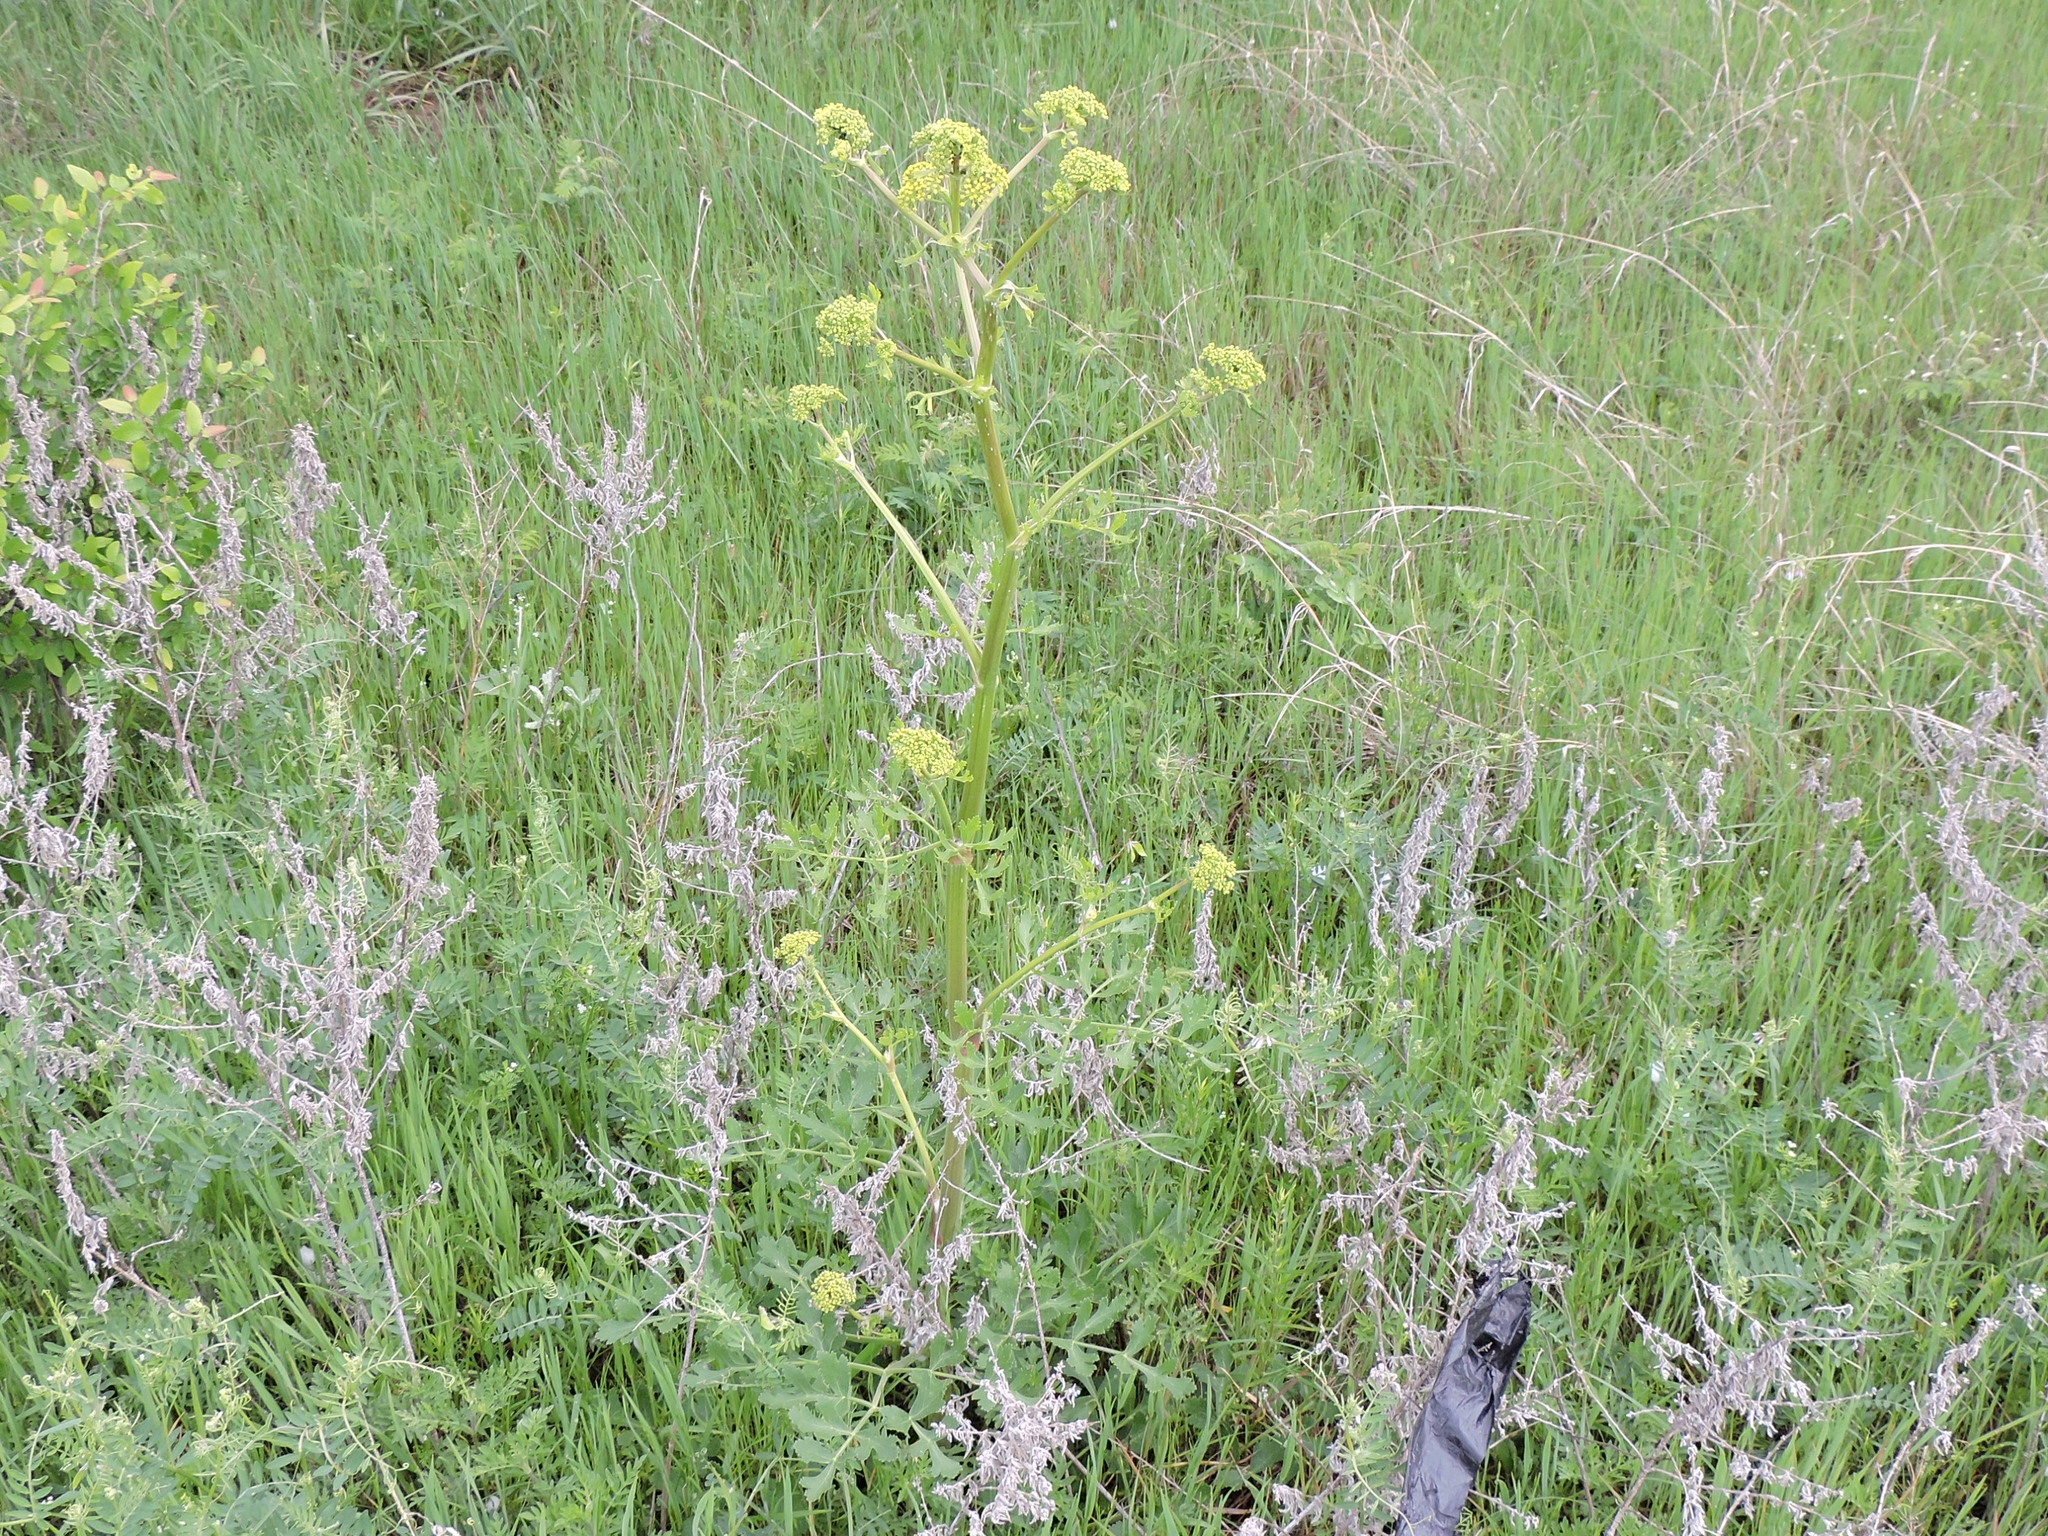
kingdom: Plantae
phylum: Tracheophyta
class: Magnoliopsida
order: Apiales
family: Apiaceae
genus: Polytaenia
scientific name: Polytaenia texana
